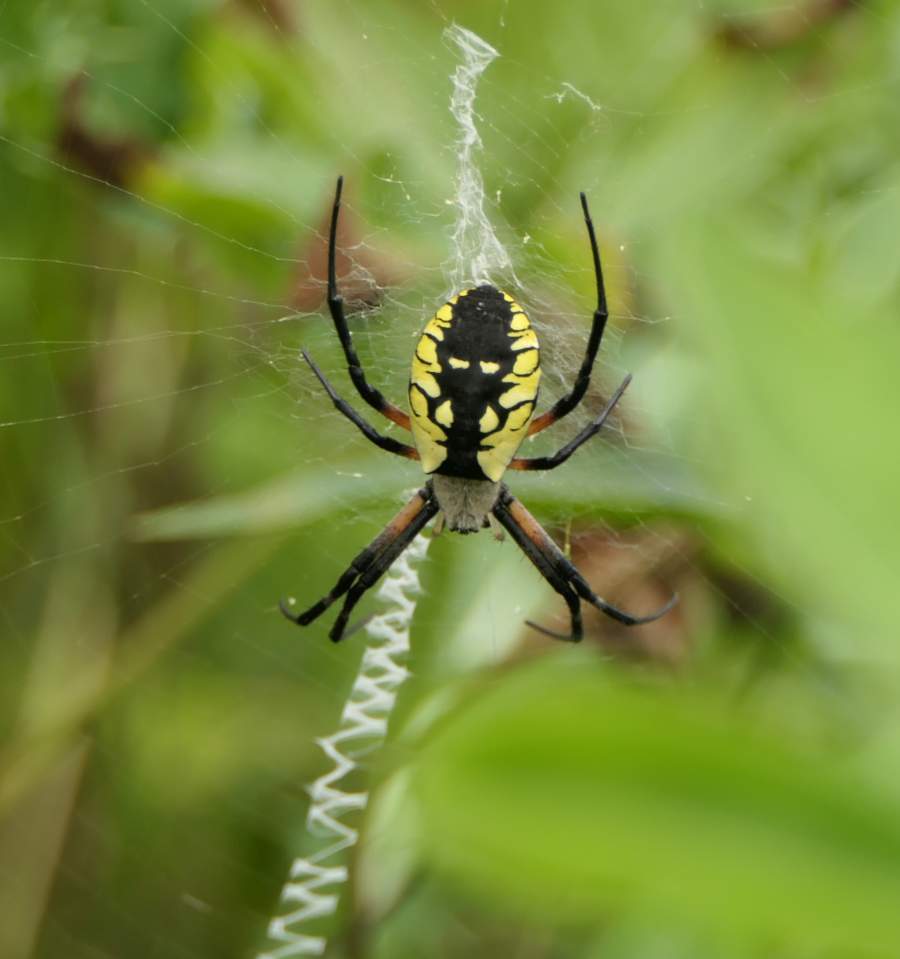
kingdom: Animalia
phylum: Arthropoda
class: Arachnida
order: Araneae
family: Araneidae
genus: Argiope
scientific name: Argiope aurantia
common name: Orb weavers
